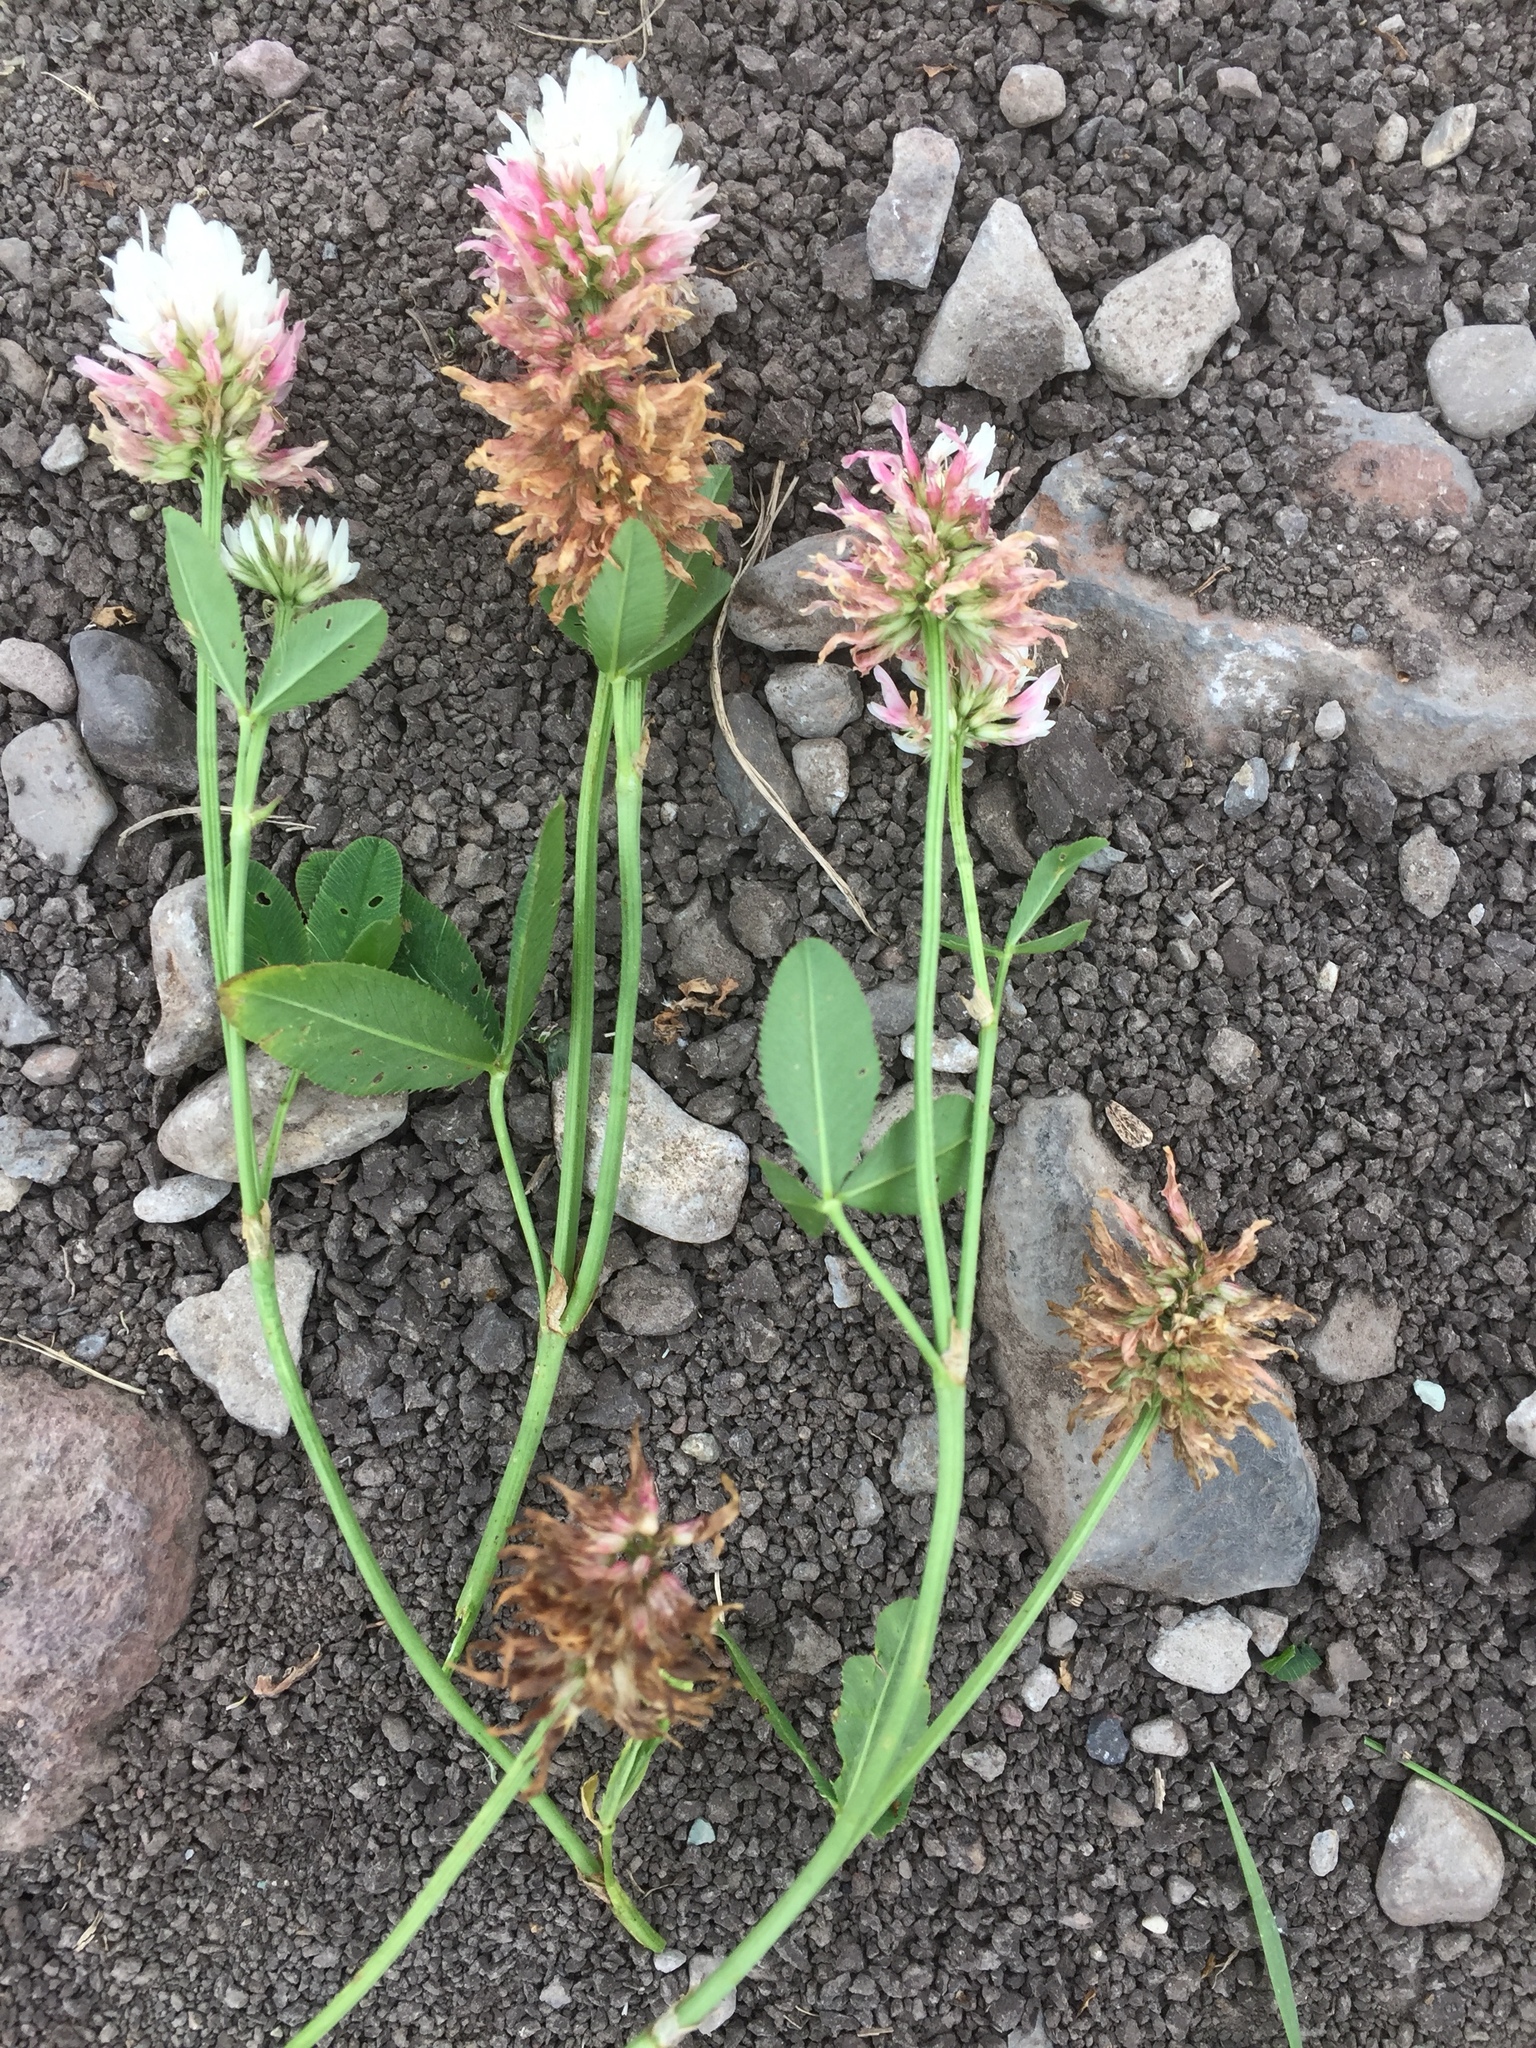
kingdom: Plantae
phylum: Tracheophyta
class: Magnoliopsida
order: Fabales
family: Fabaceae
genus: Trifolium
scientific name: Trifolium ambiguum
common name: Kura clover
